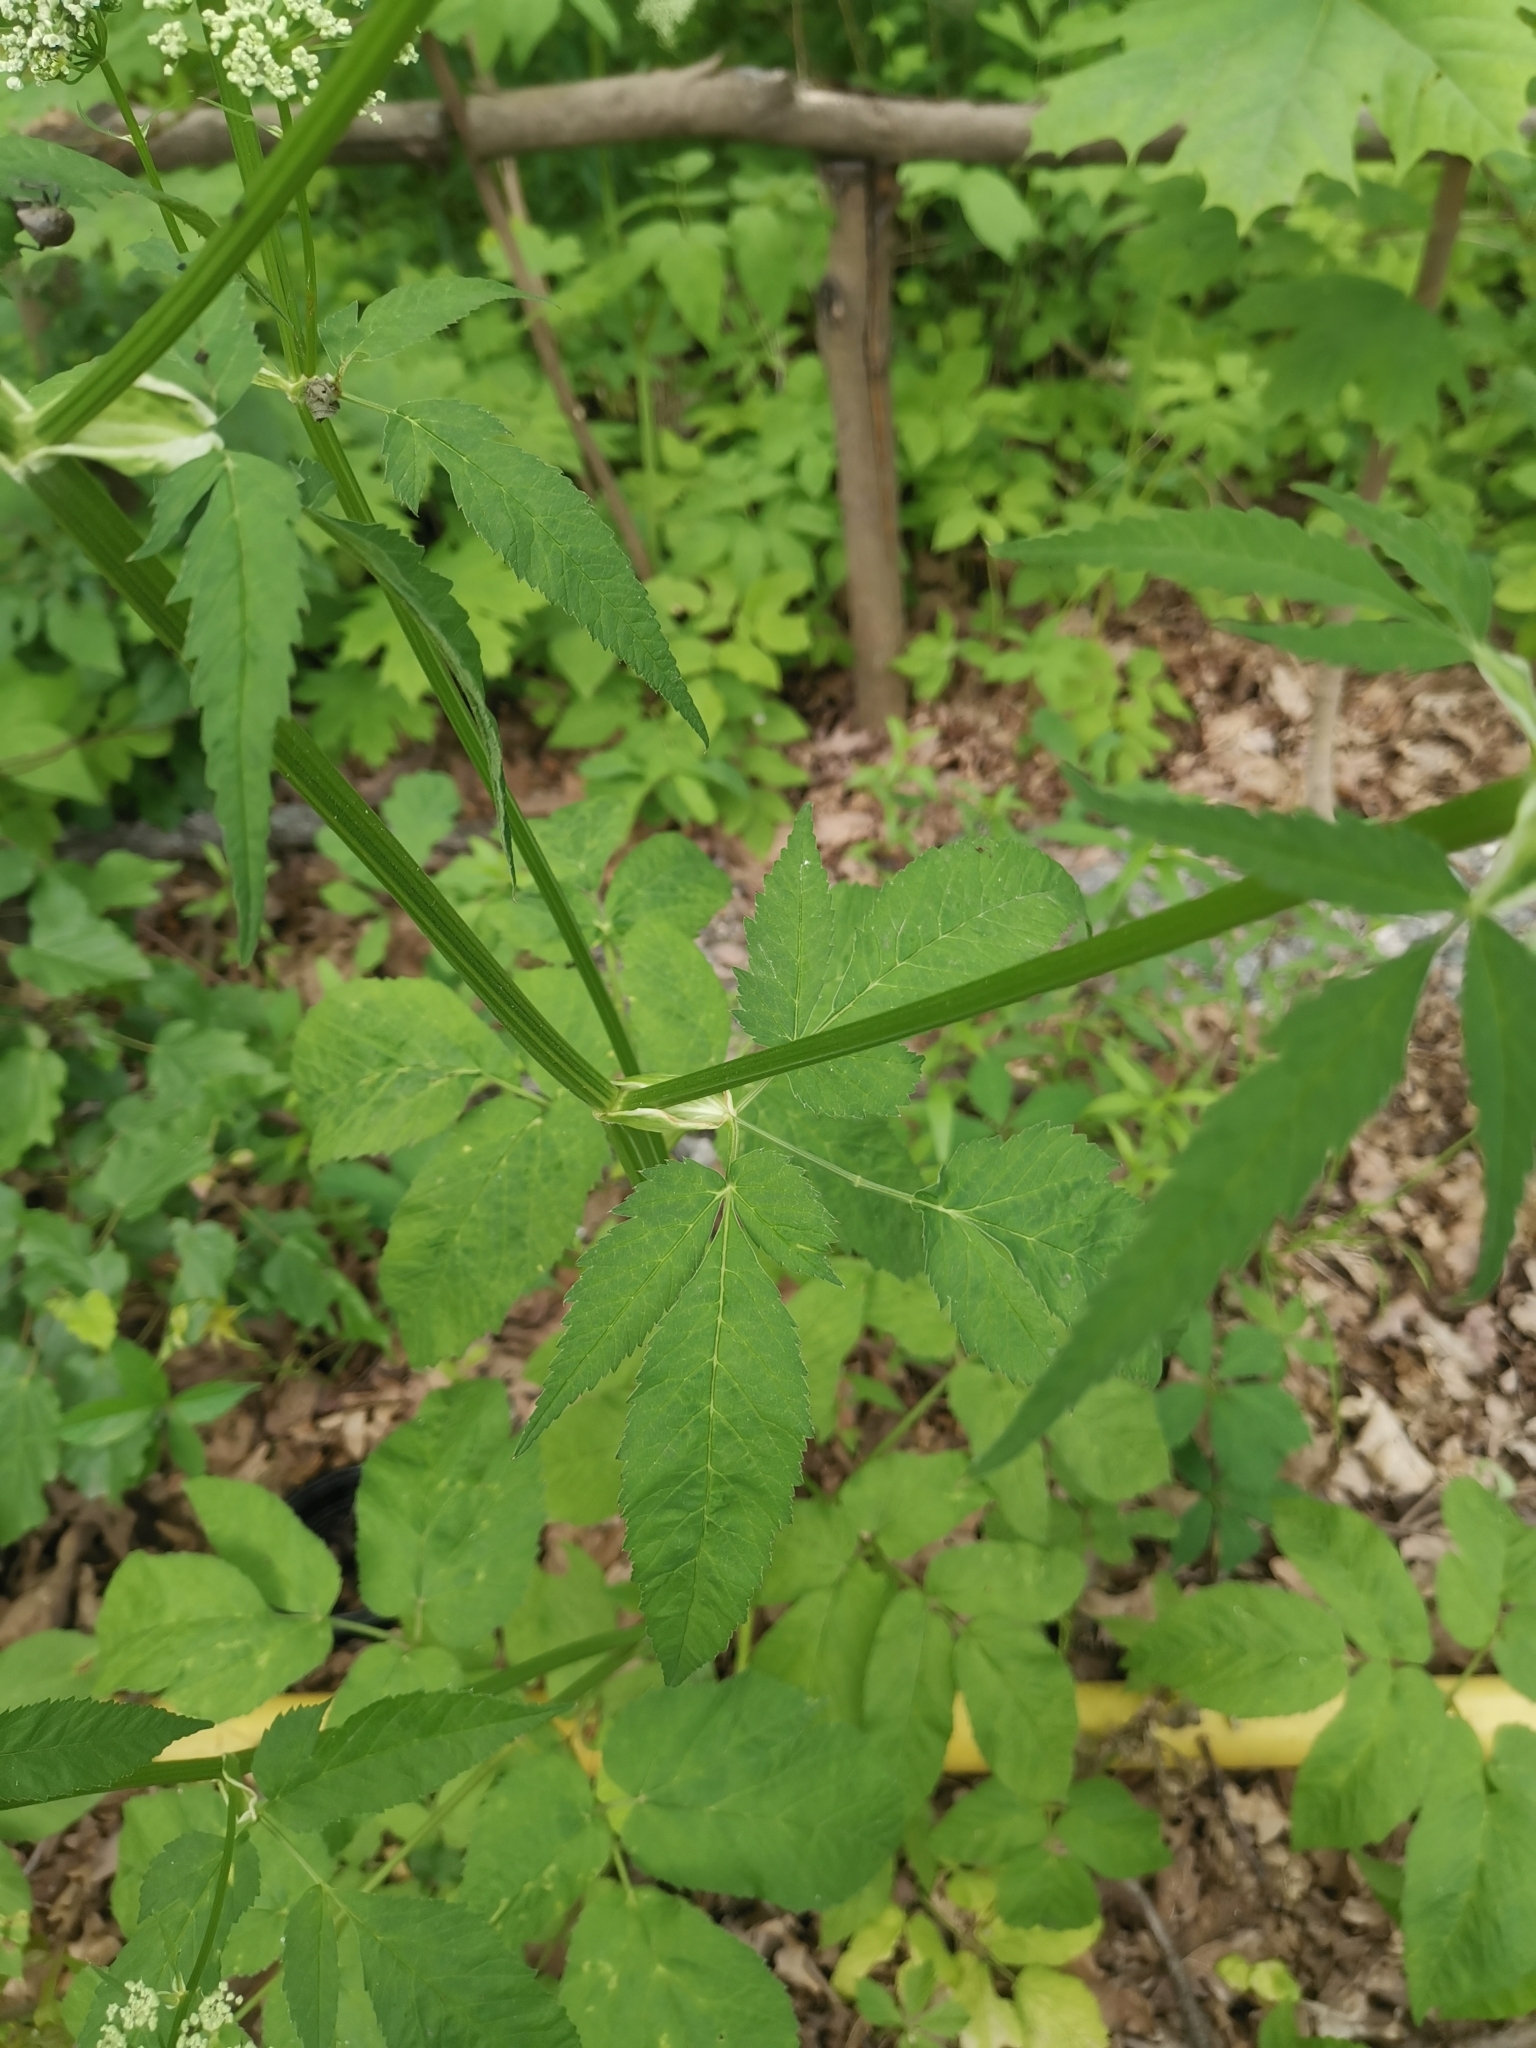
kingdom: Plantae
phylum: Tracheophyta
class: Magnoliopsida
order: Apiales
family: Apiaceae
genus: Aegopodium
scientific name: Aegopodium podagraria
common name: Ground-elder
